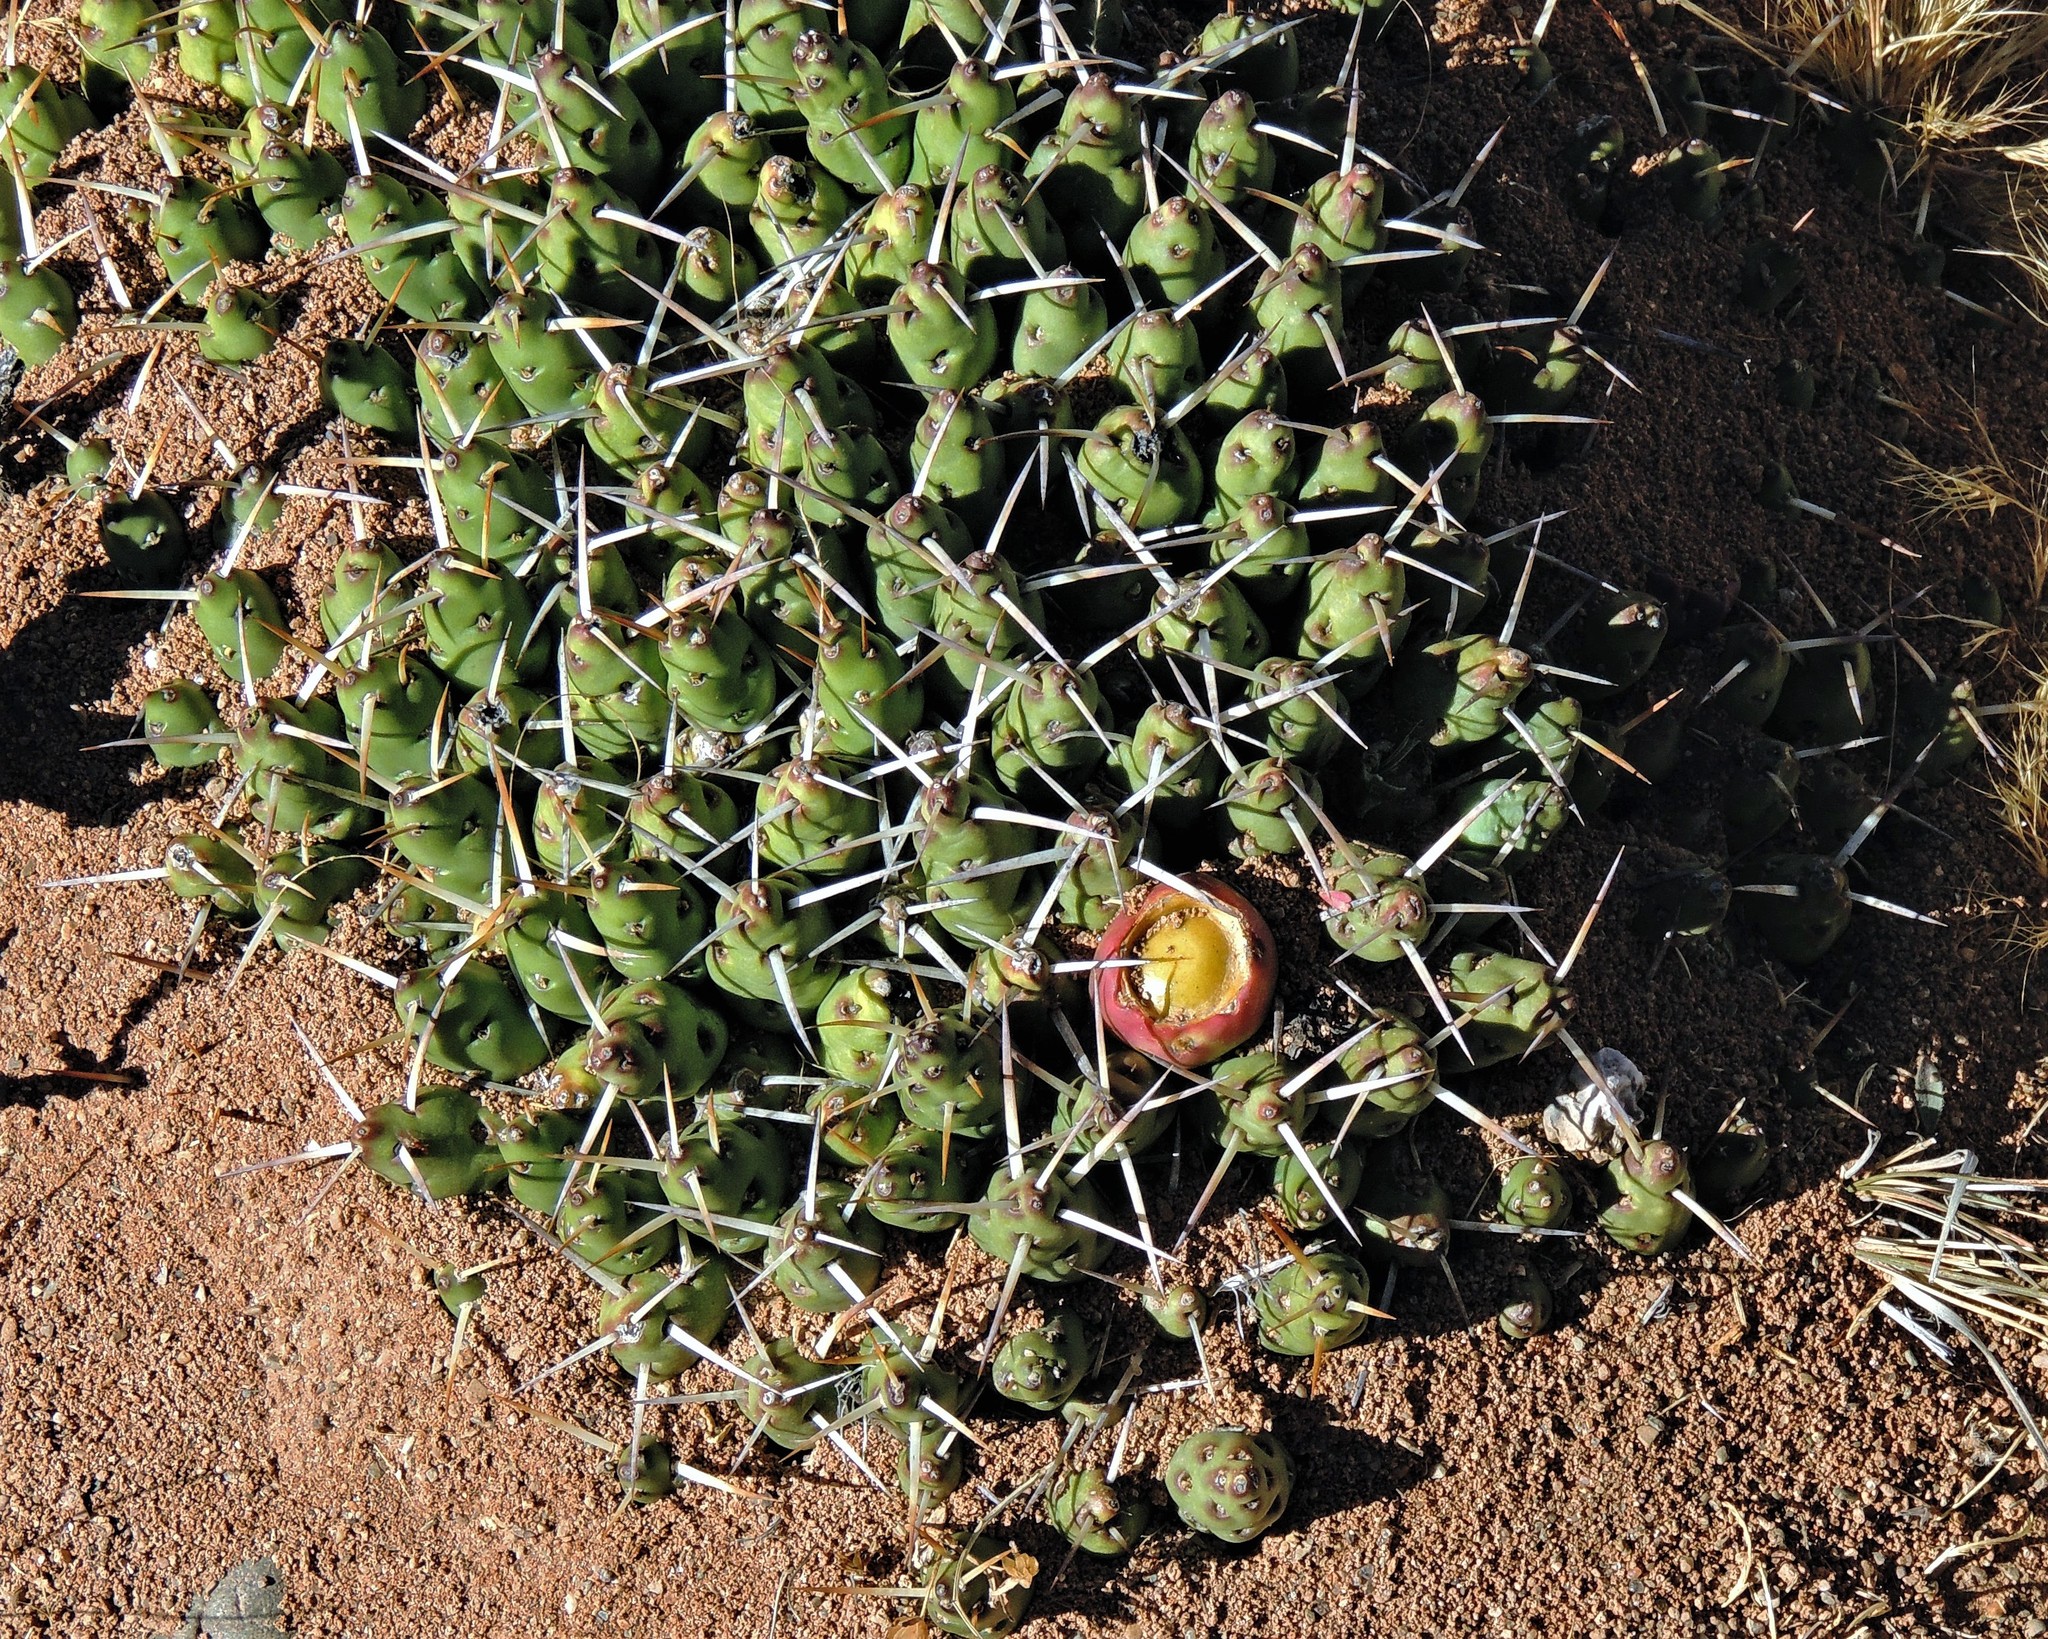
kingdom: Plantae
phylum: Tracheophyta
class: Magnoliopsida
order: Caryophyllales
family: Cactaceae
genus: Maihueniopsis
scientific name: Maihueniopsis glomerata
